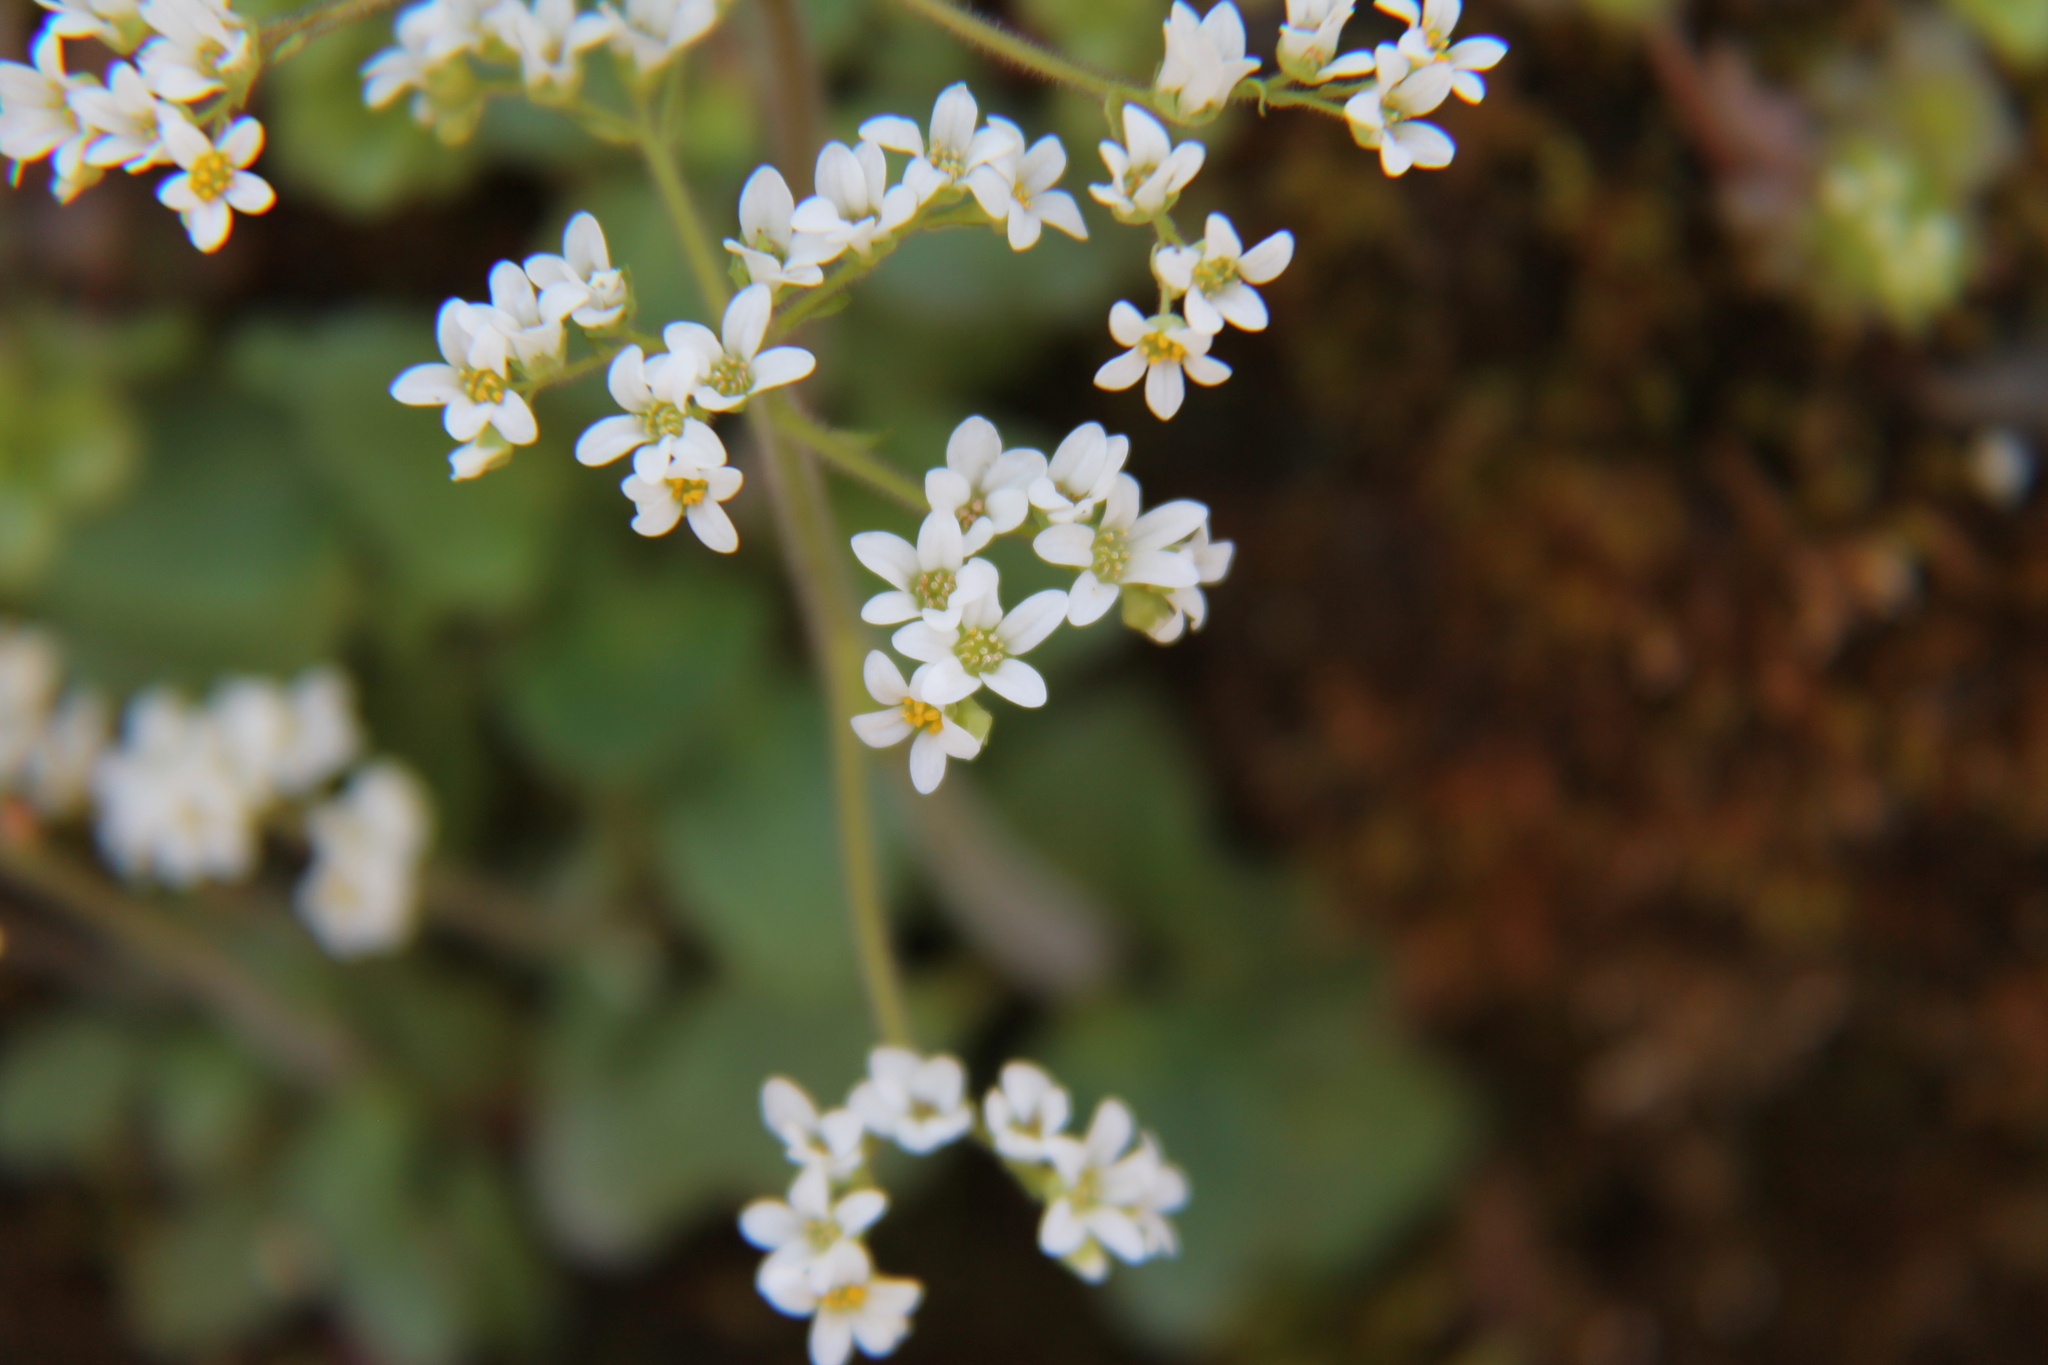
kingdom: Plantae
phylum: Tracheophyta
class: Magnoliopsida
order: Saxifragales
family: Saxifragaceae
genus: Micranthes
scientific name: Micranthes virginiensis
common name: Early saxifrage
